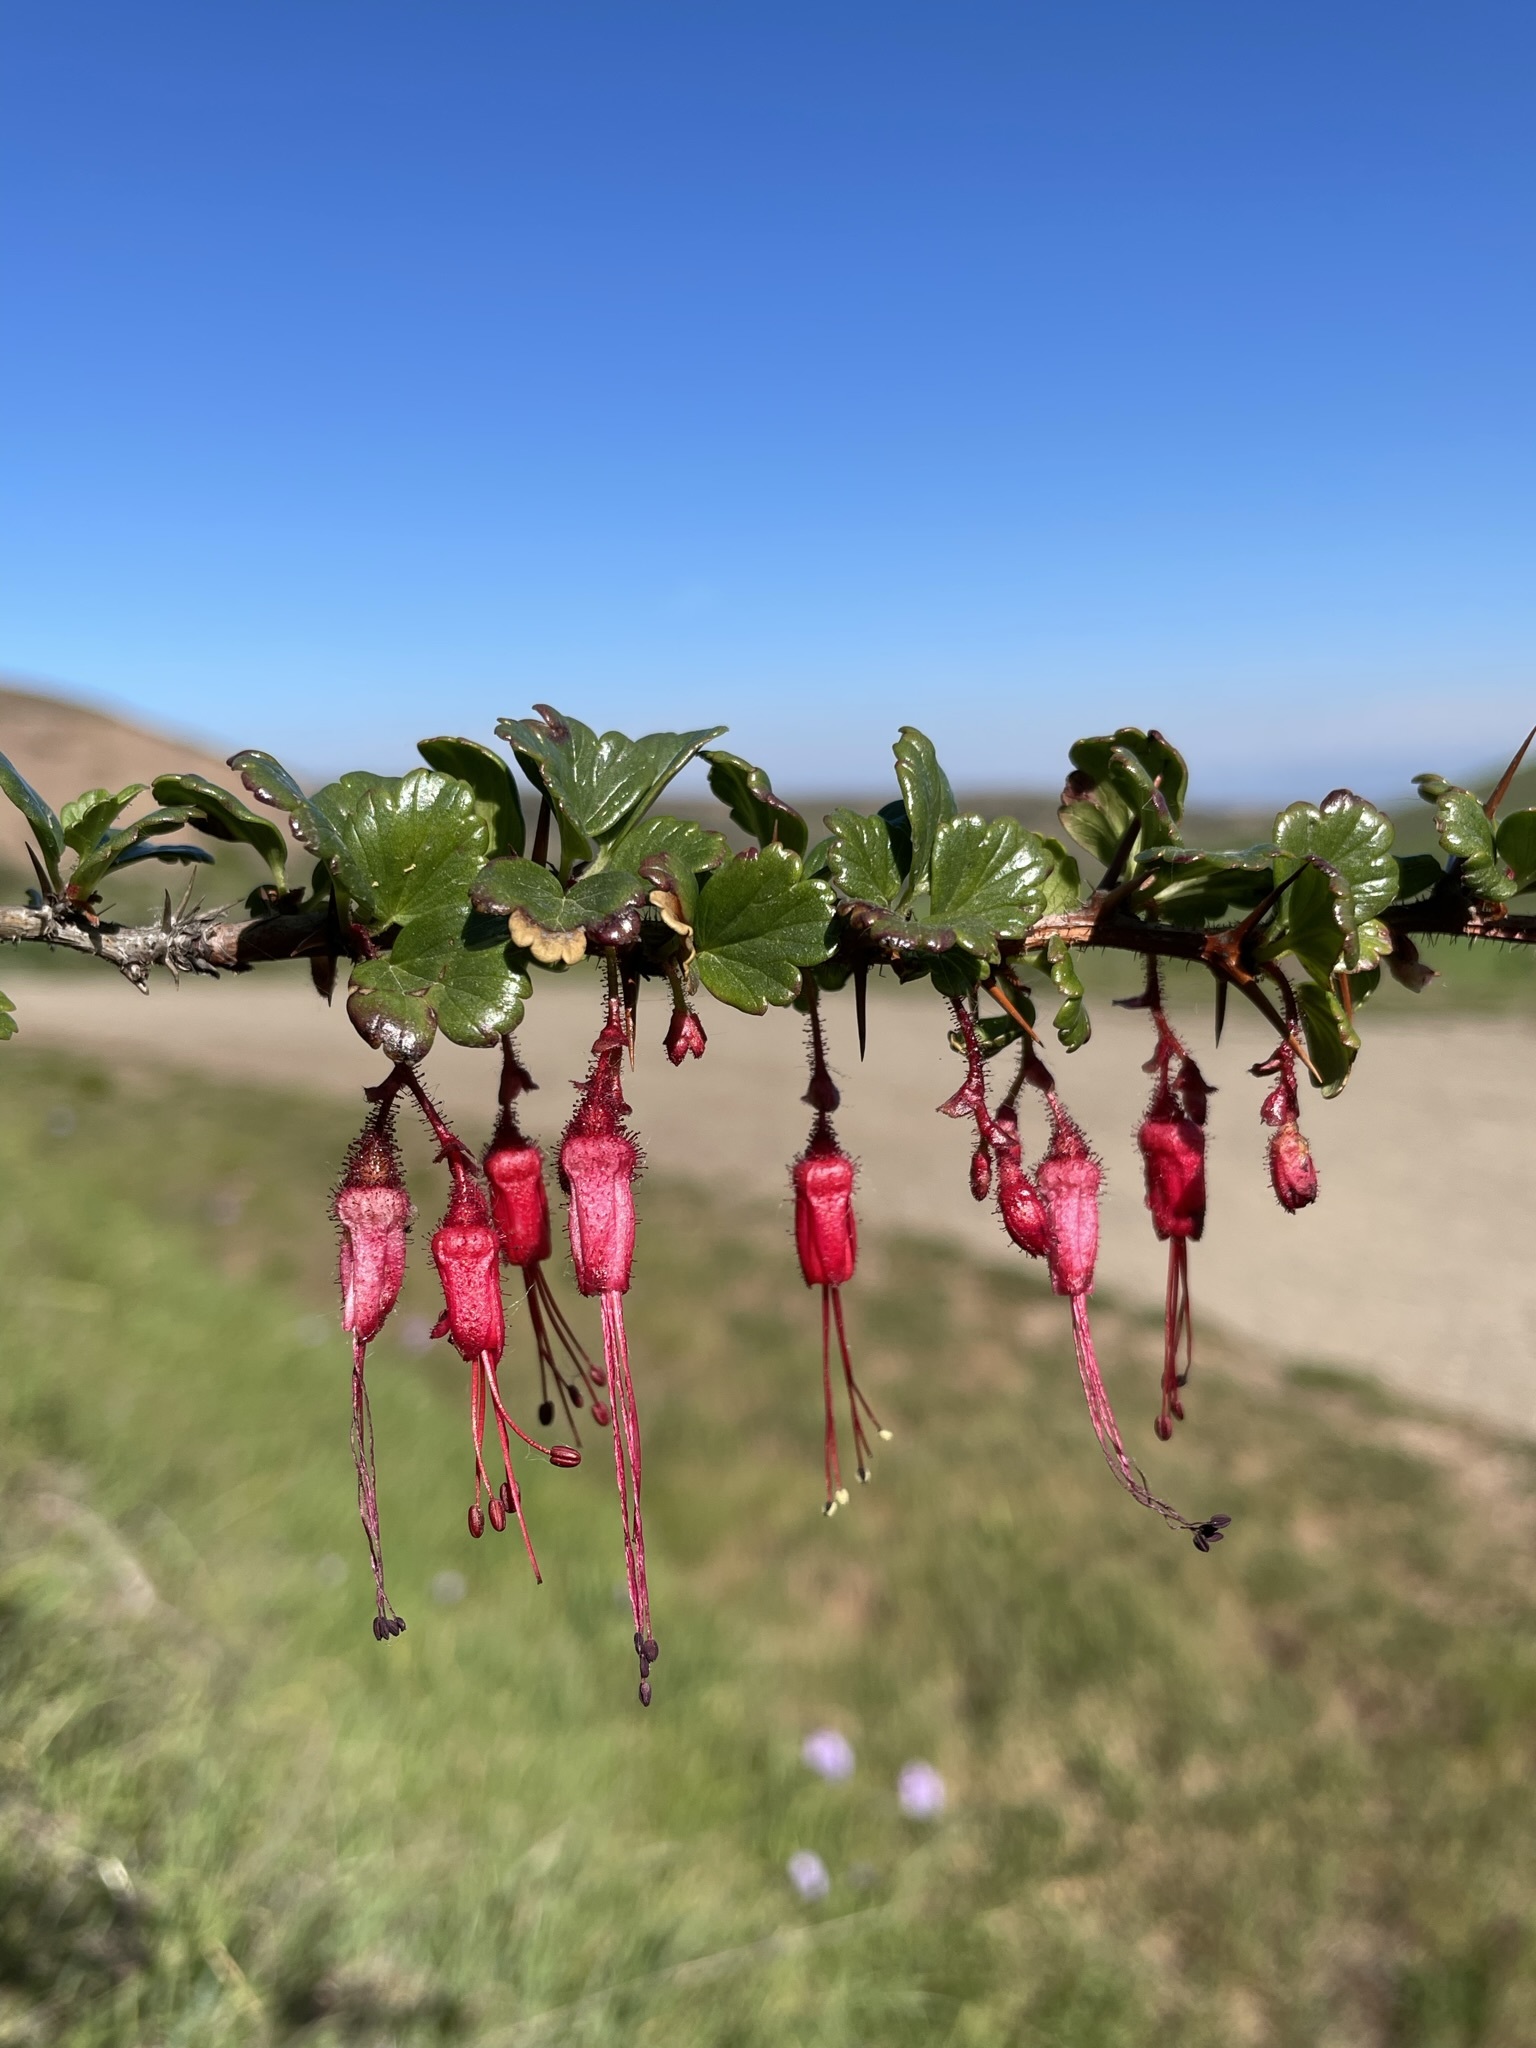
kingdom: Plantae
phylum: Tracheophyta
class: Magnoliopsida
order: Saxifragales
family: Grossulariaceae
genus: Ribes
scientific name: Ribes speciosum
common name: Fuchsia-flower gooseberry
